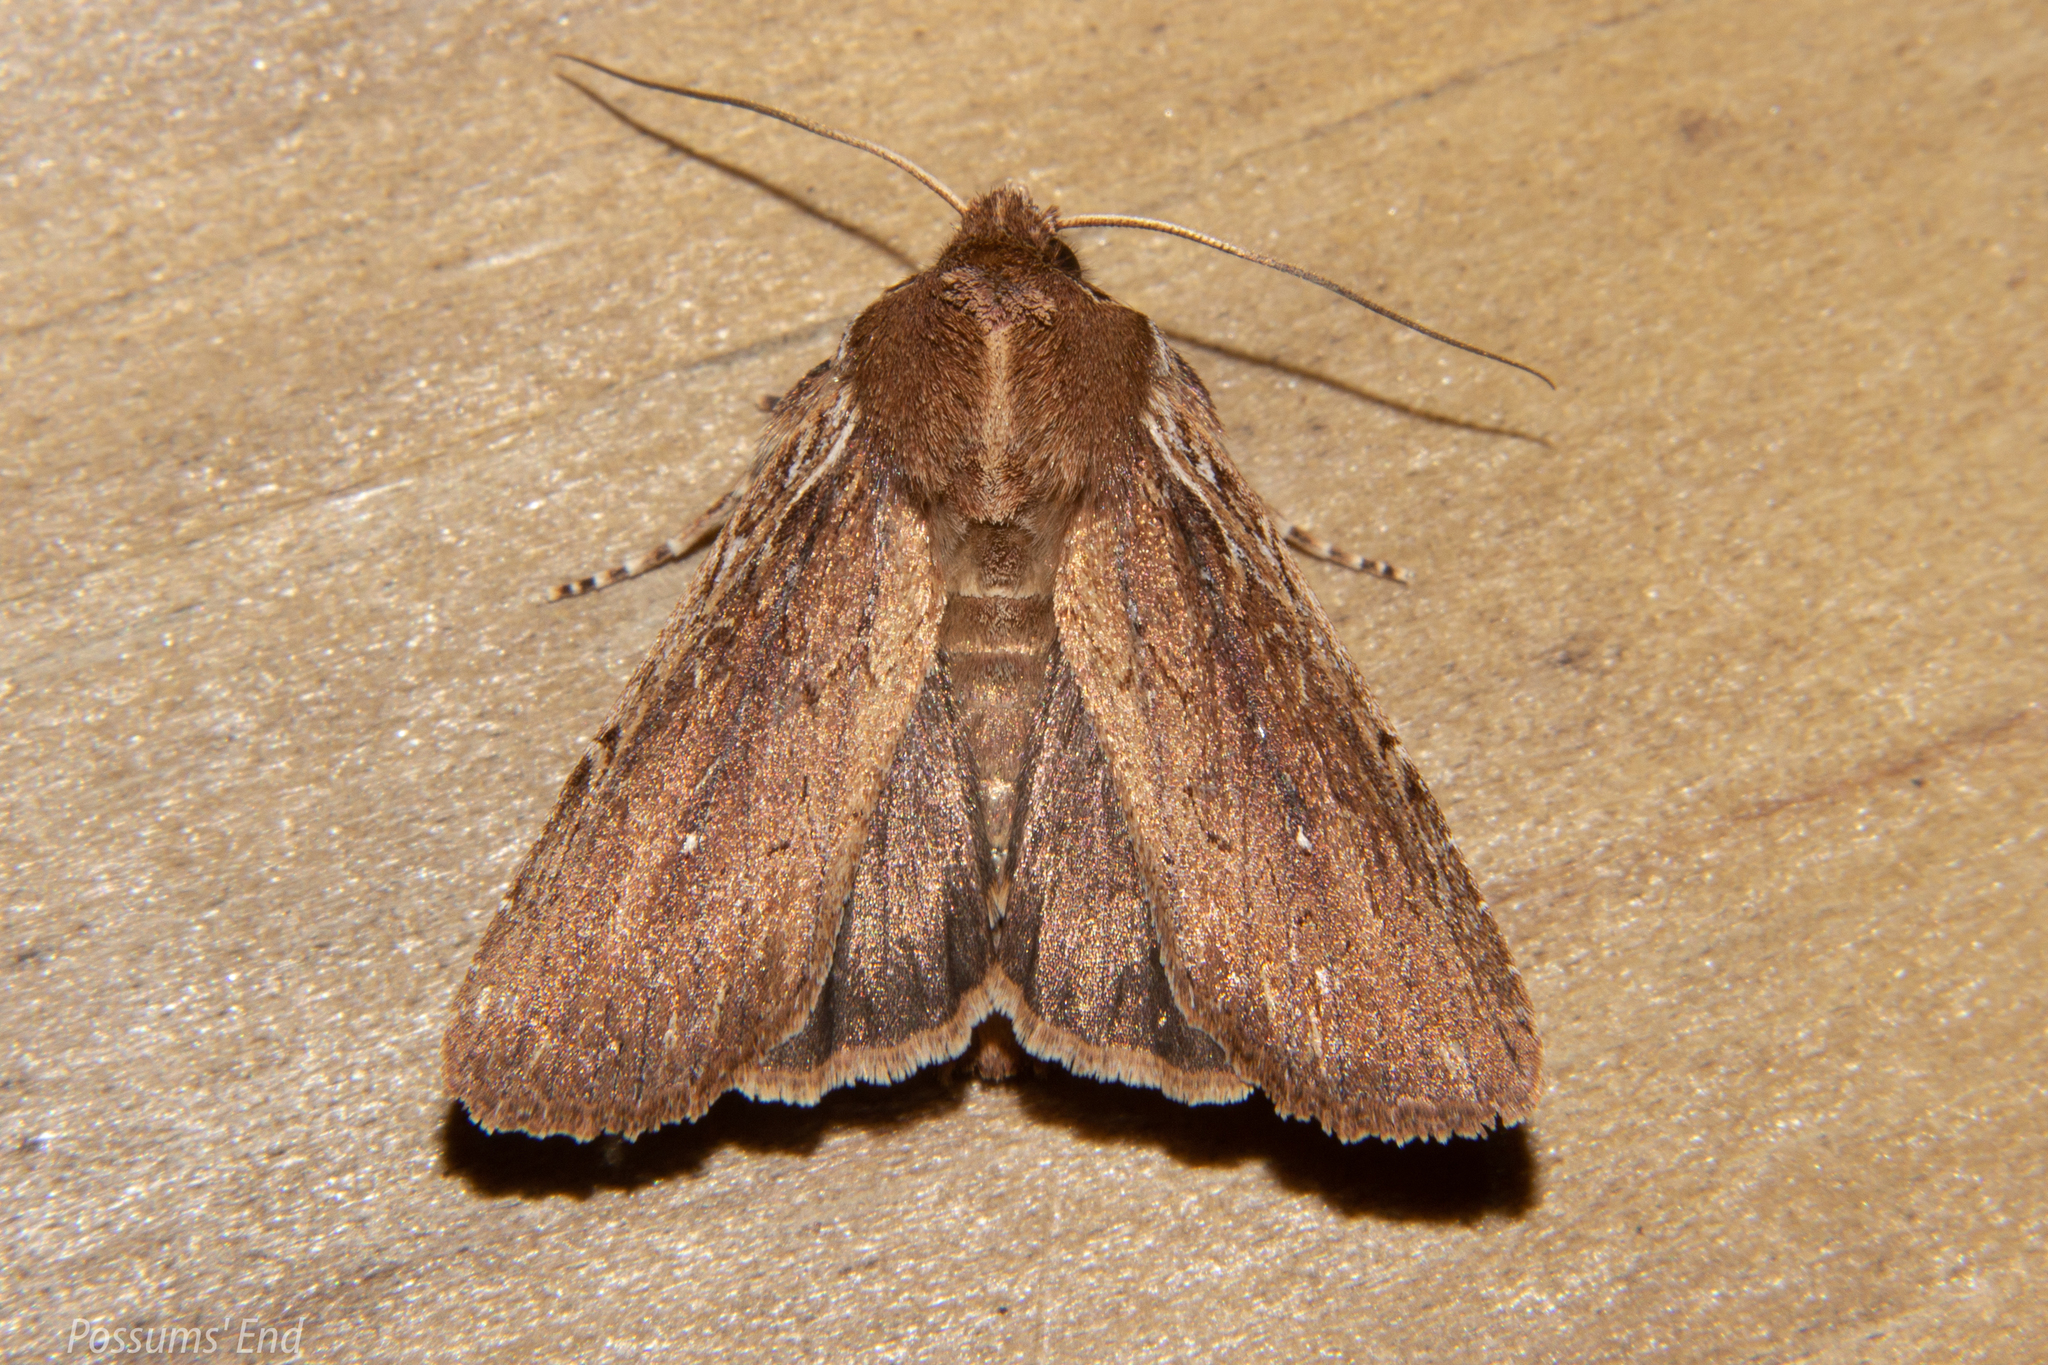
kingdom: Animalia
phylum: Arthropoda
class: Insecta
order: Lepidoptera
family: Noctuidae
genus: Ichneutica
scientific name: Ichneutica
